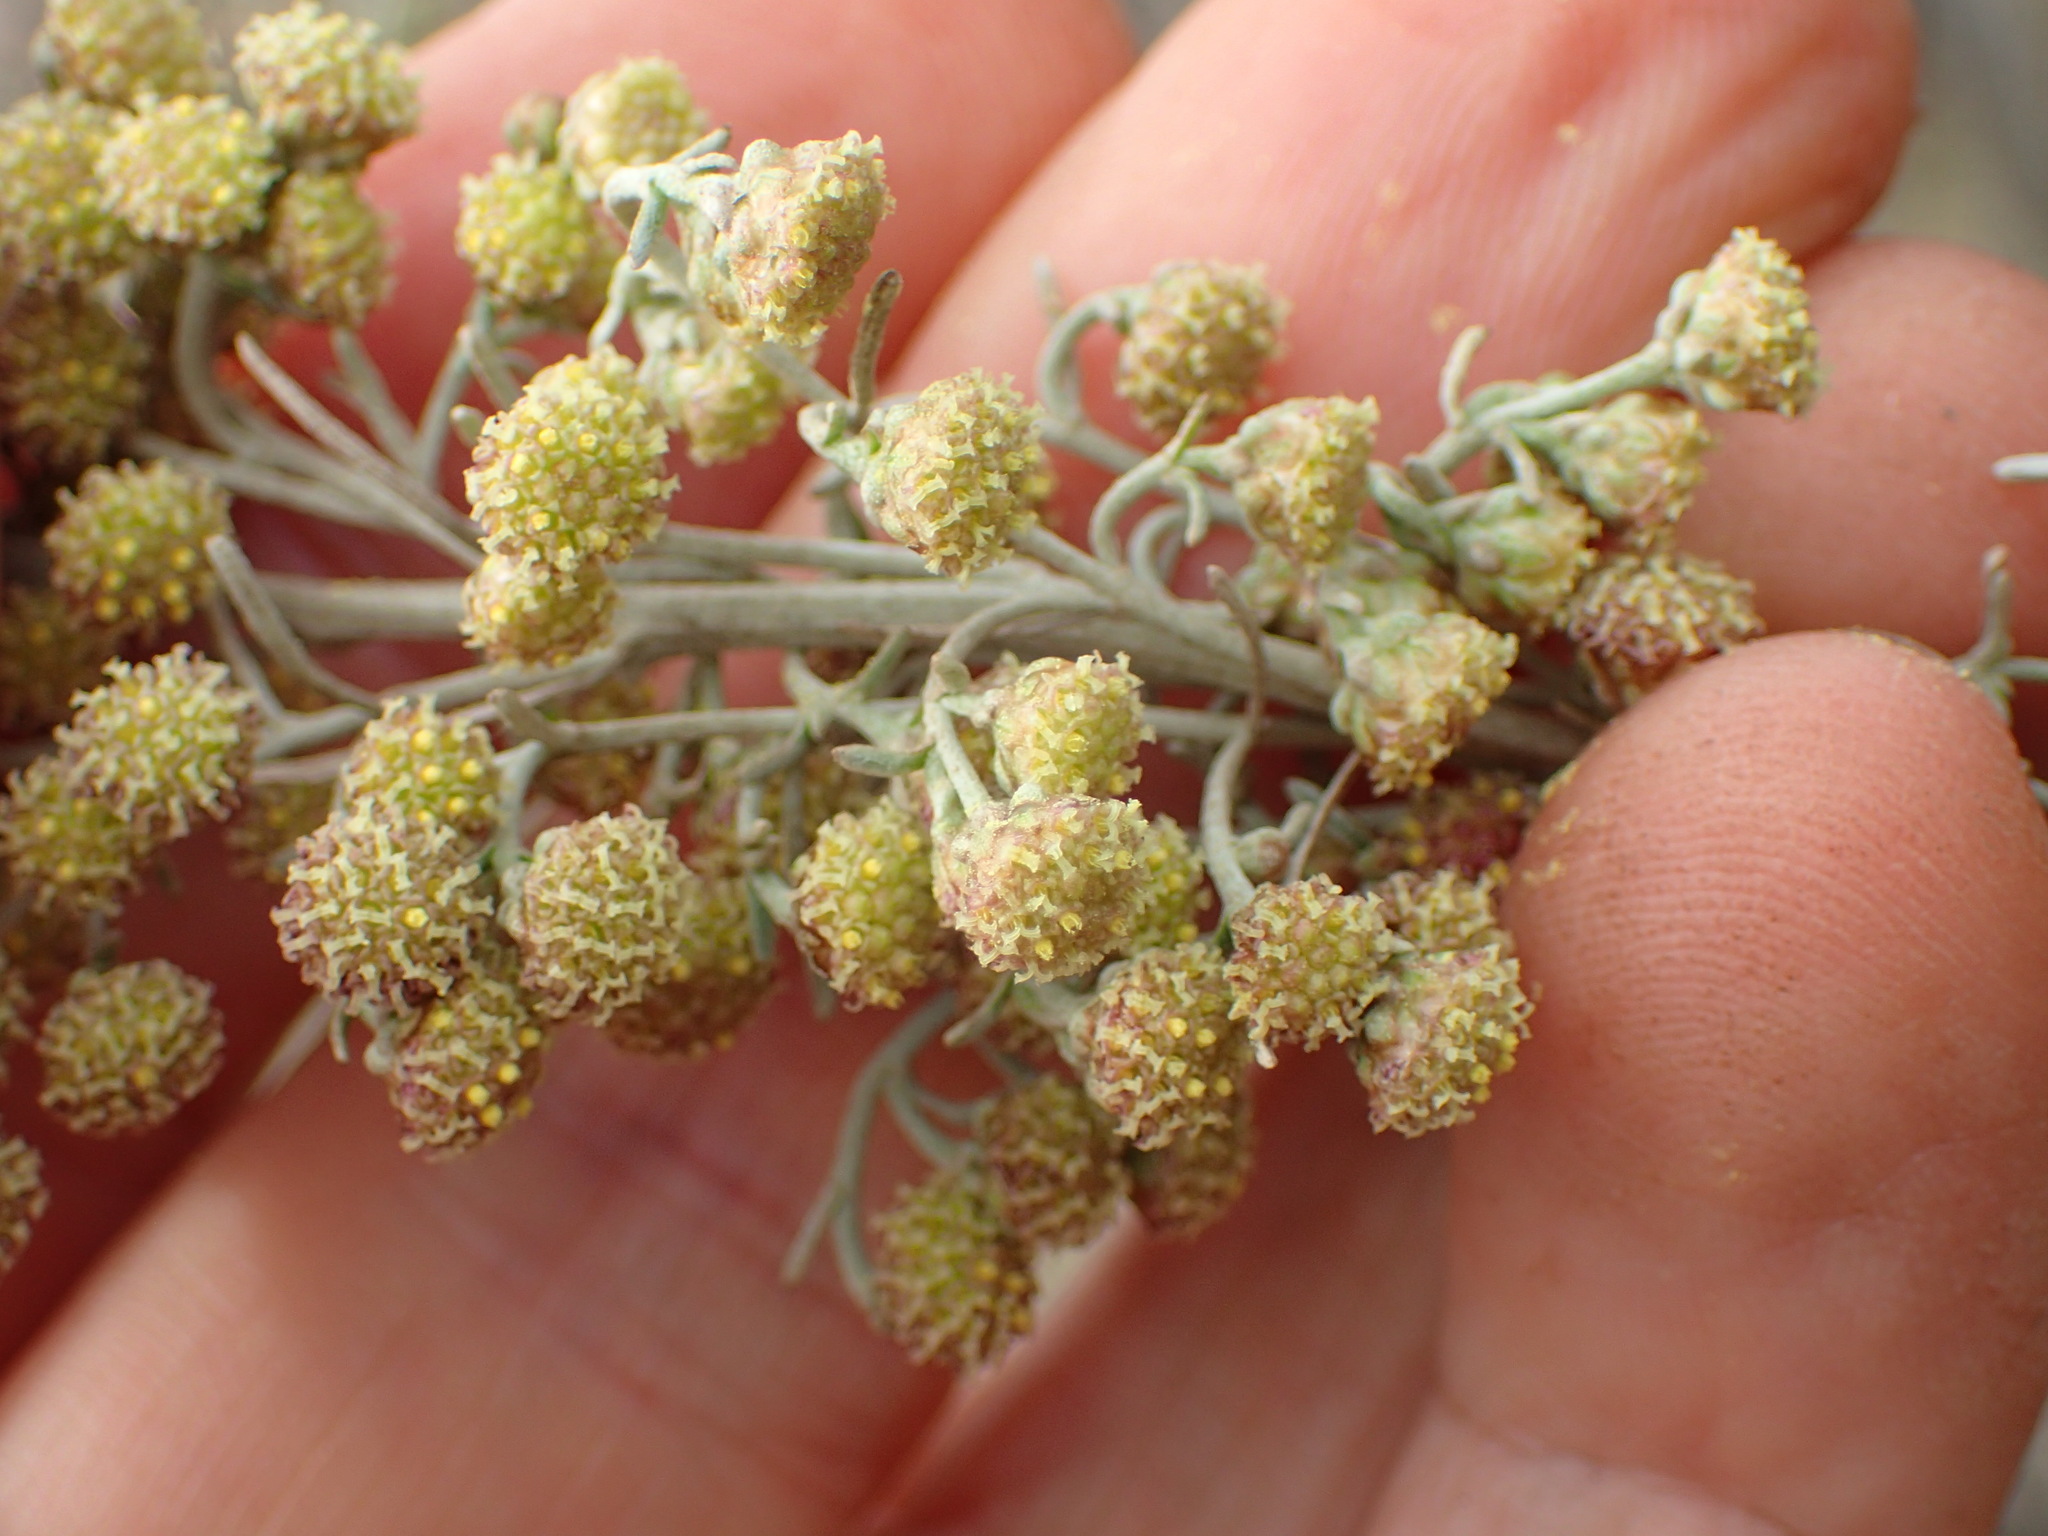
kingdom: Plantae
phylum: Tracheophyta
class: Magnoliopsida
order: Asterales
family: Asteraceae
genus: Artemisia
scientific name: Artemisia californica
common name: California sagebrush
